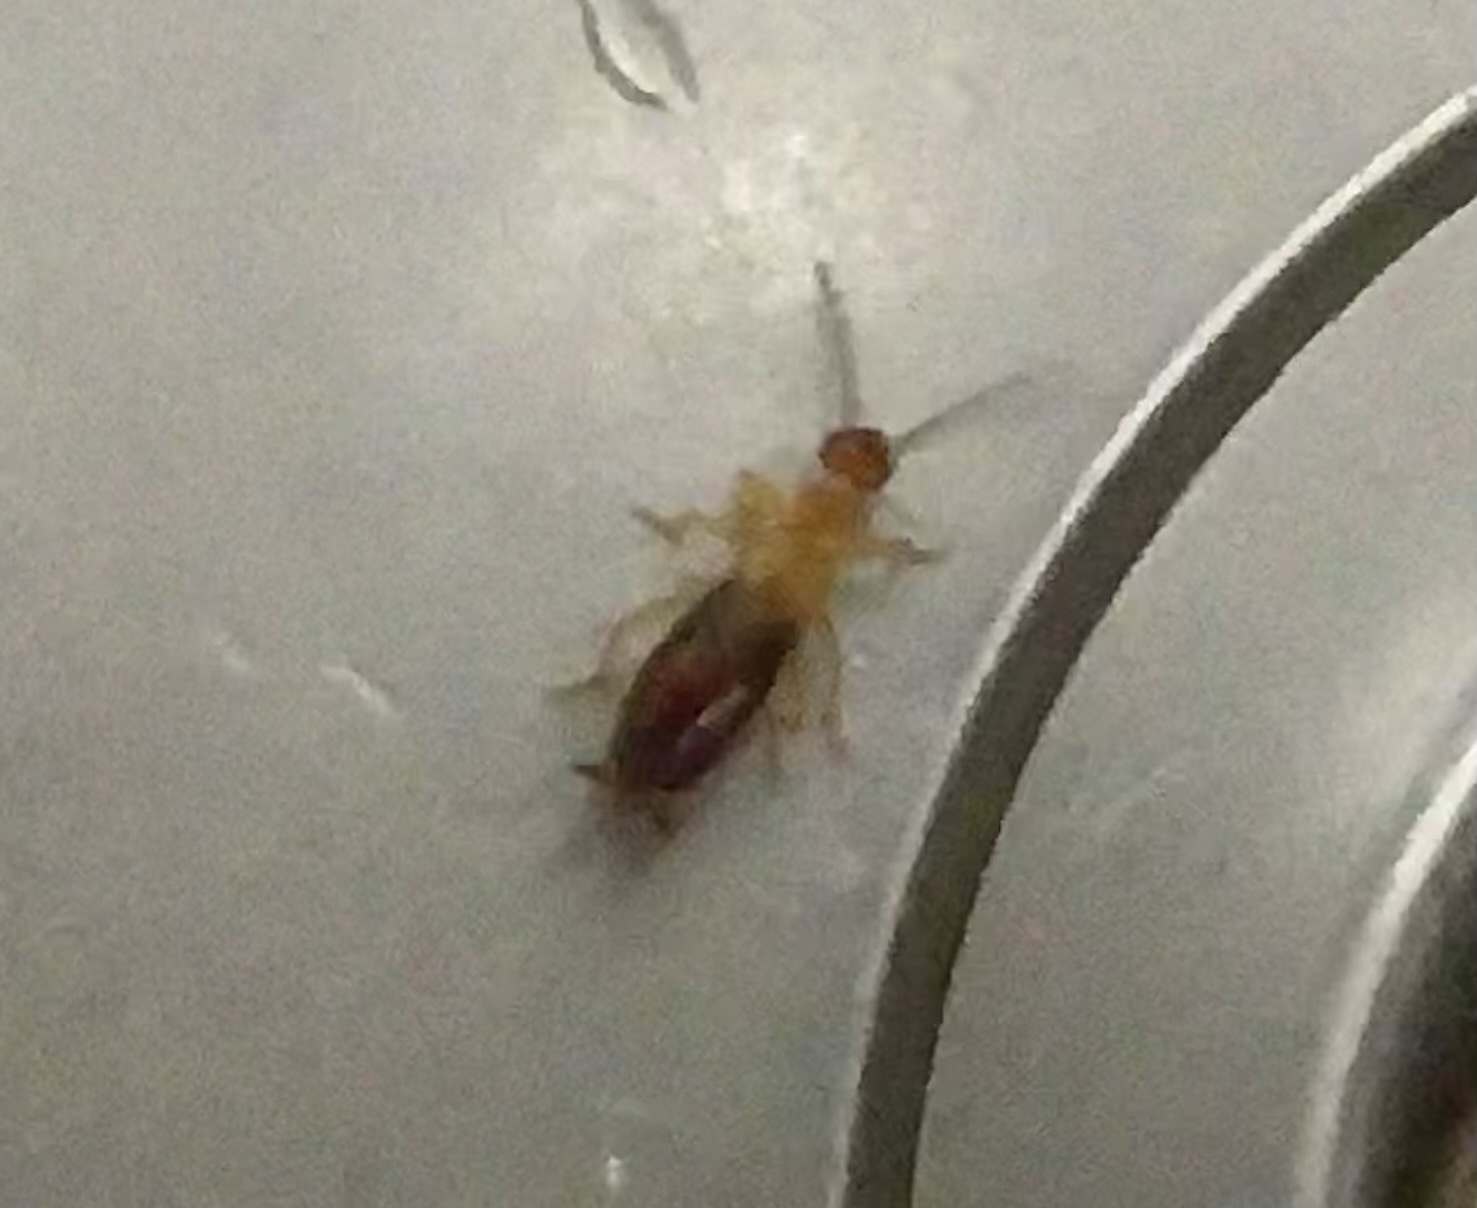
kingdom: Animalia
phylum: Arthropoda
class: Insecta
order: Dermaptera
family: Forficulidae
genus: Forficula
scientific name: Forficula
